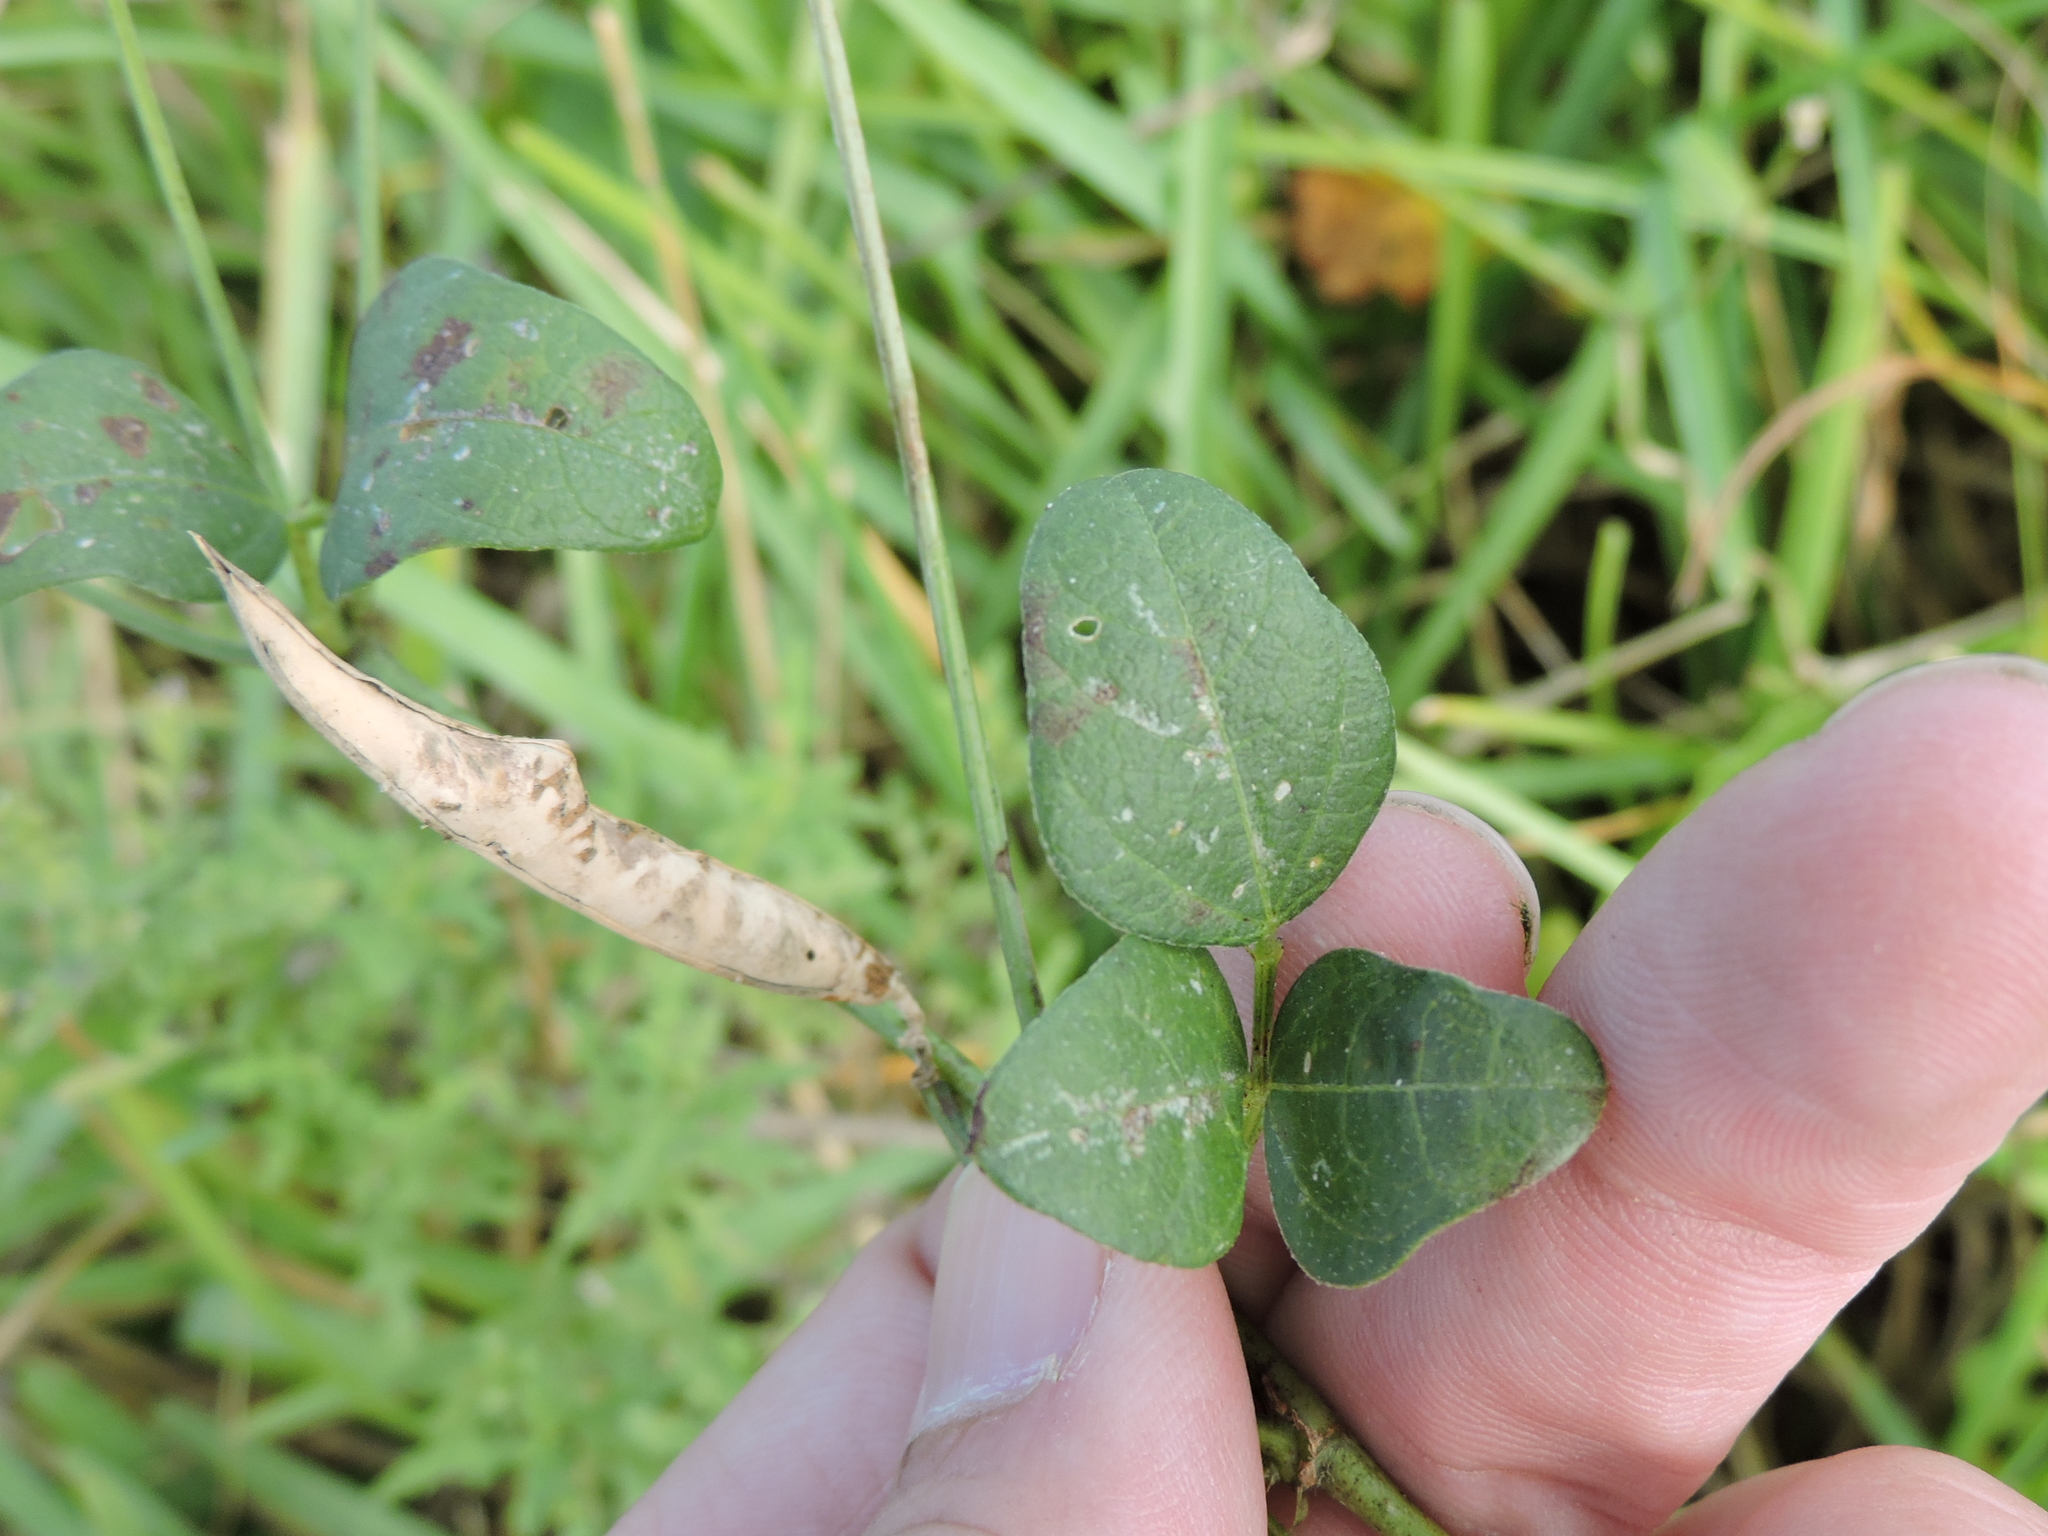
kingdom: Plantae
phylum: Tracheophyta
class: Magnoliopsida
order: Fabales
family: Fabaceae
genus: Strophostyles
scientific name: Strophostyles helvola
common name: Trailing wild bean
